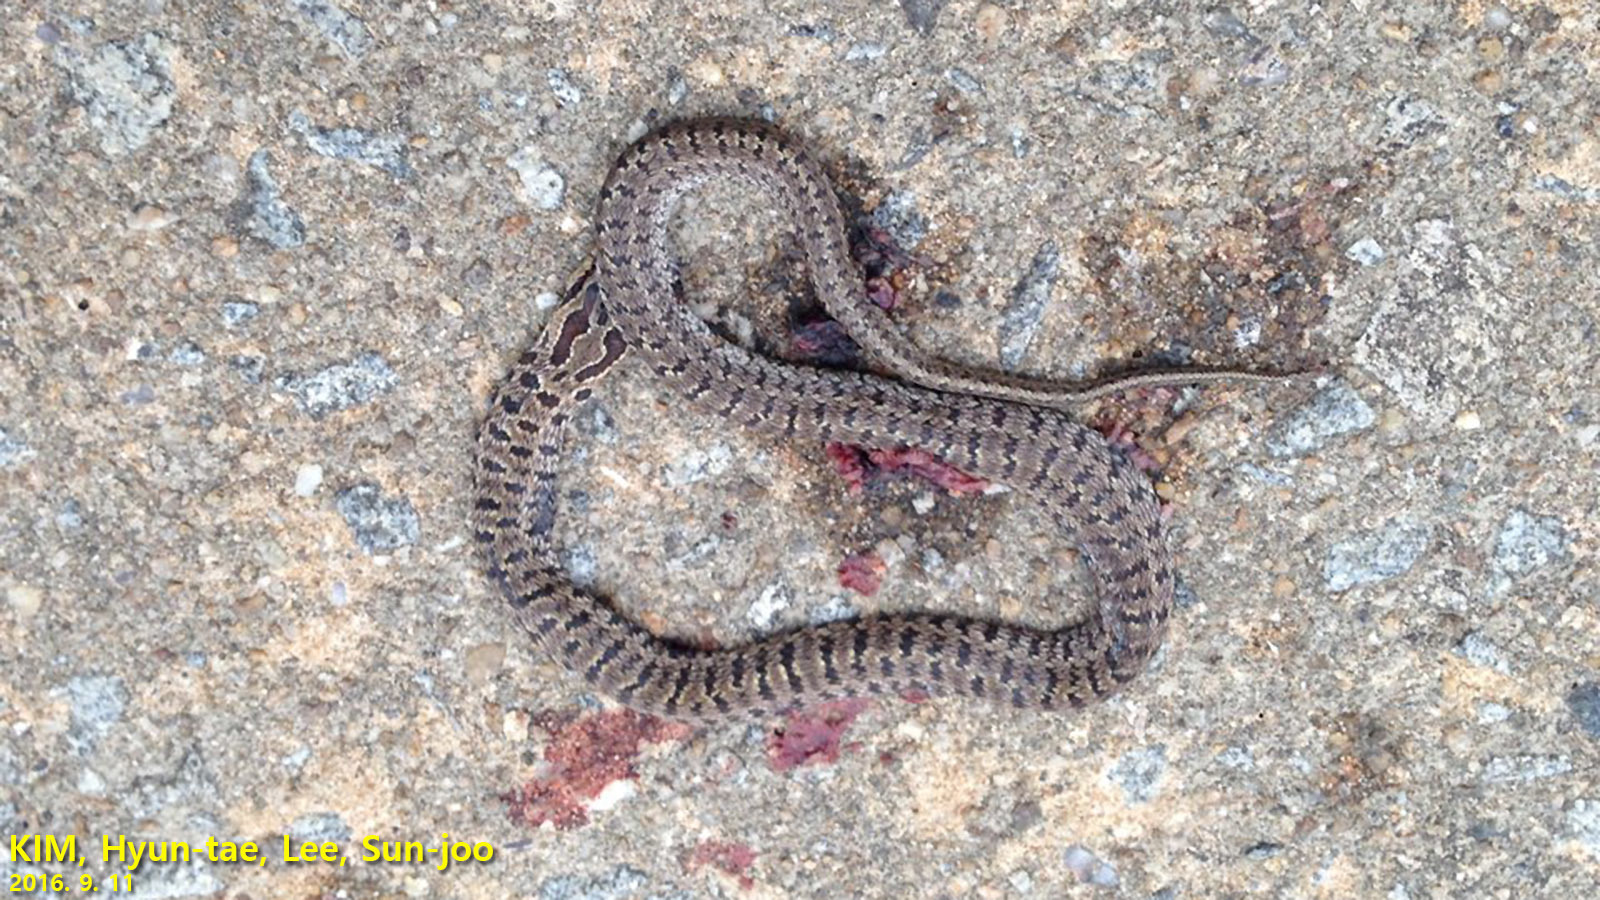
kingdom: Animalia
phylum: Chordata
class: Squamata
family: Colubridae
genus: Elaphe
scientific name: Elaphe dione
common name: Dione ratsnake
